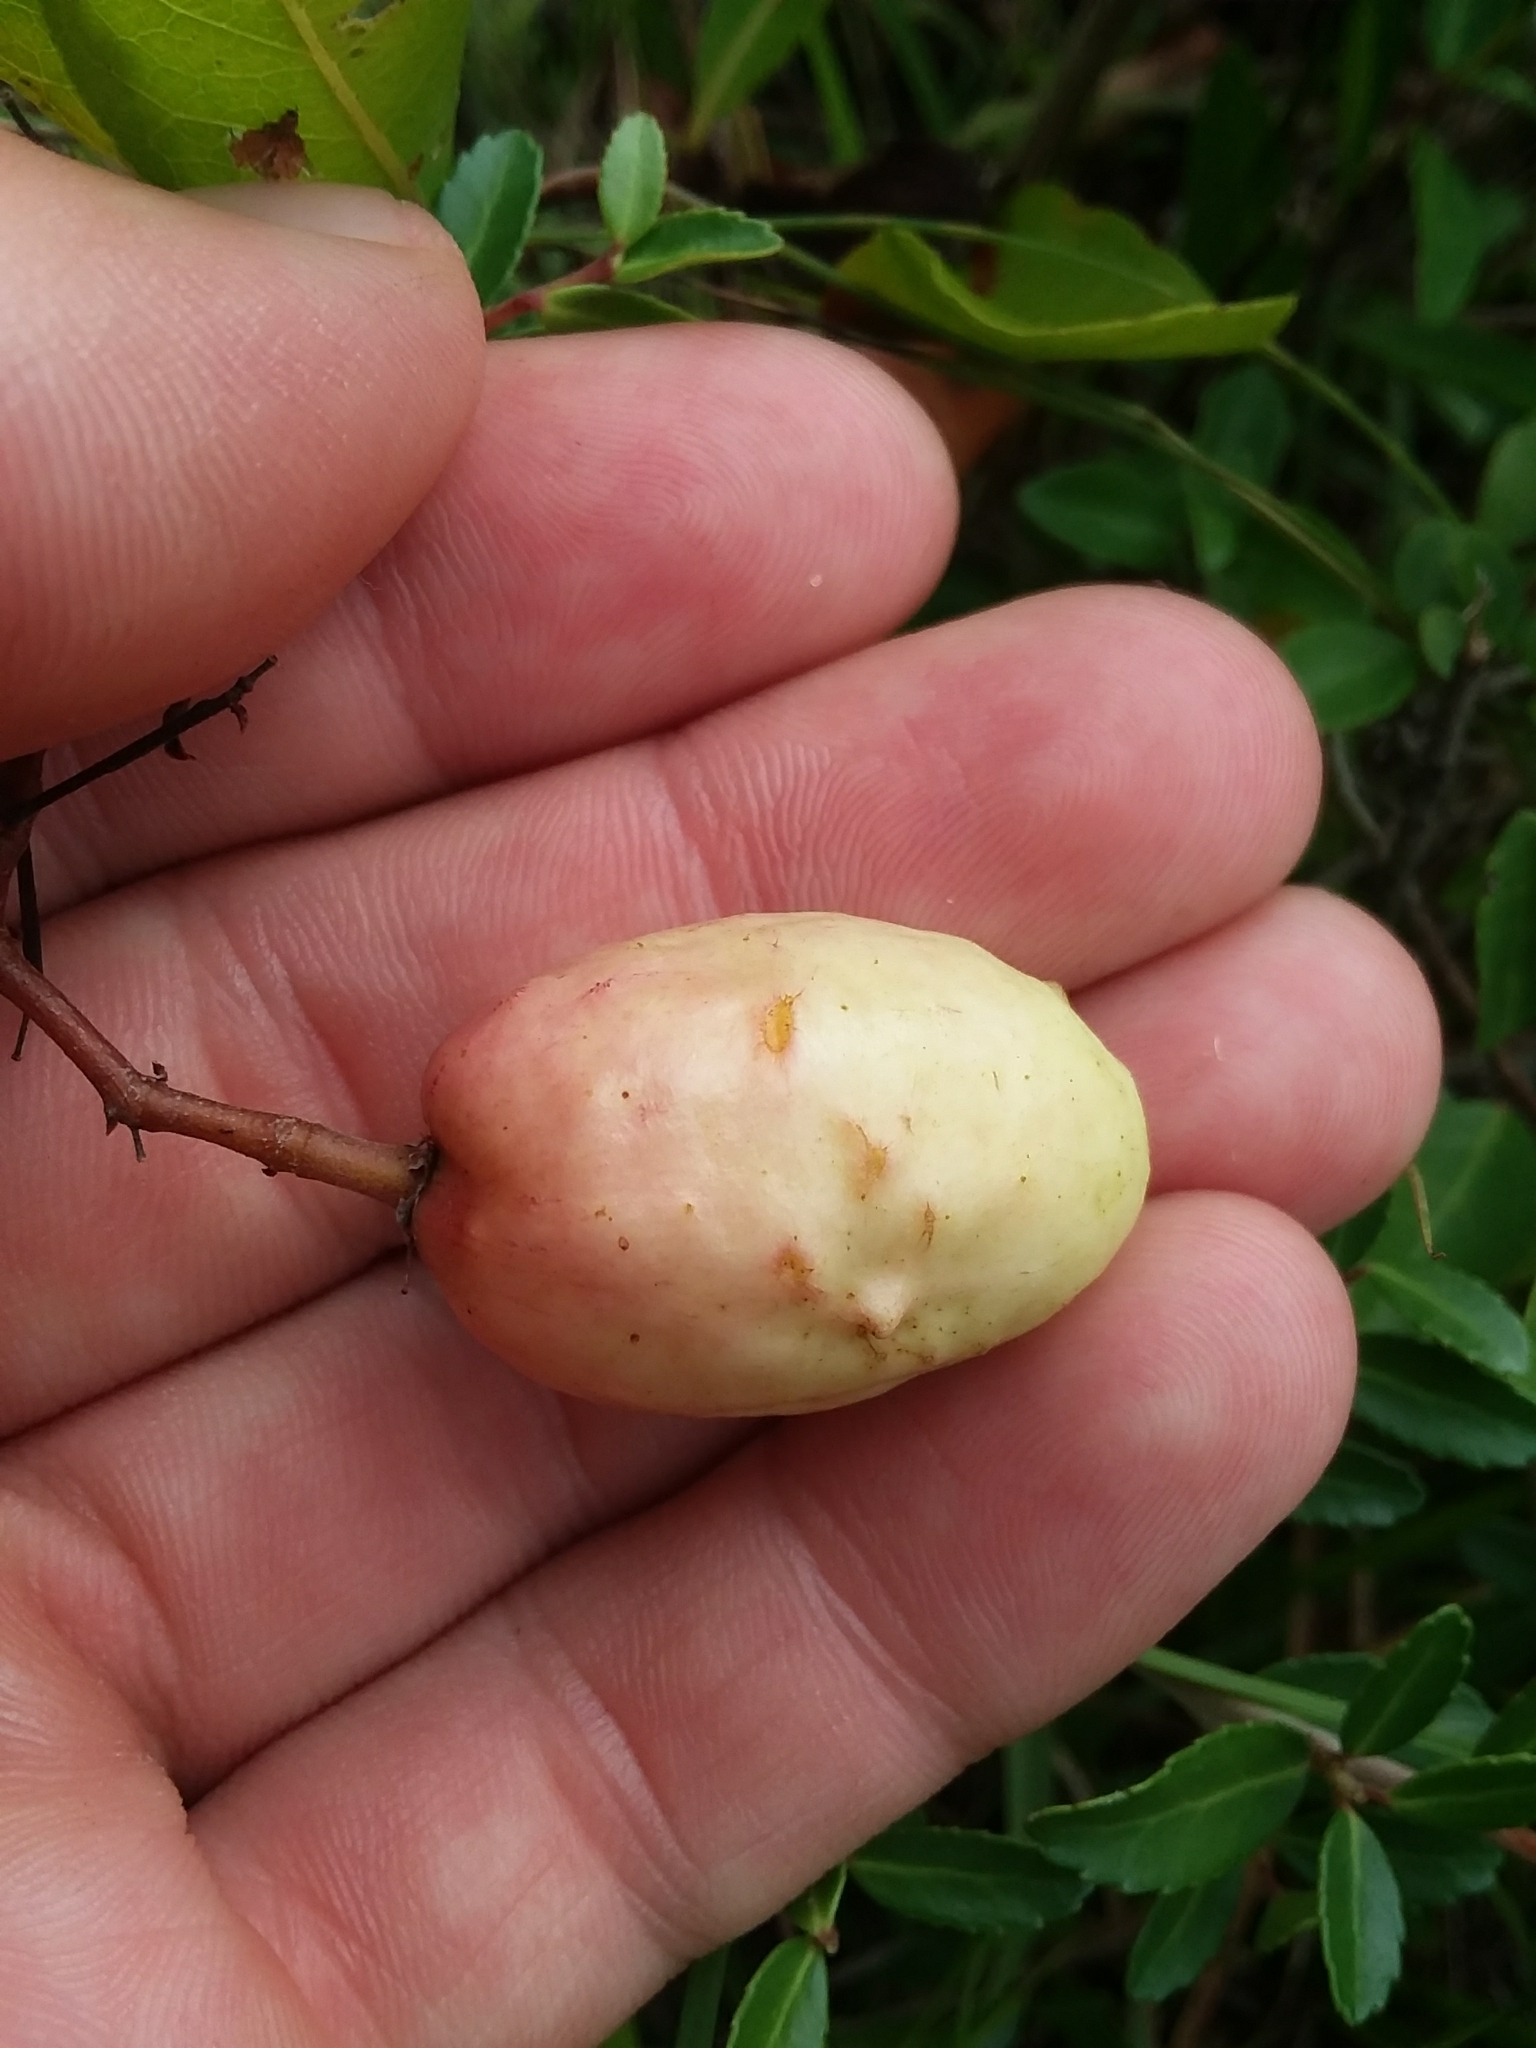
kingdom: Plantae
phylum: Tracheophyta
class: Magnoliopsida
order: Malpighiales
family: Chrysobalanaceae
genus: Geobalanus
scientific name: Geobalanus oblongifolius
